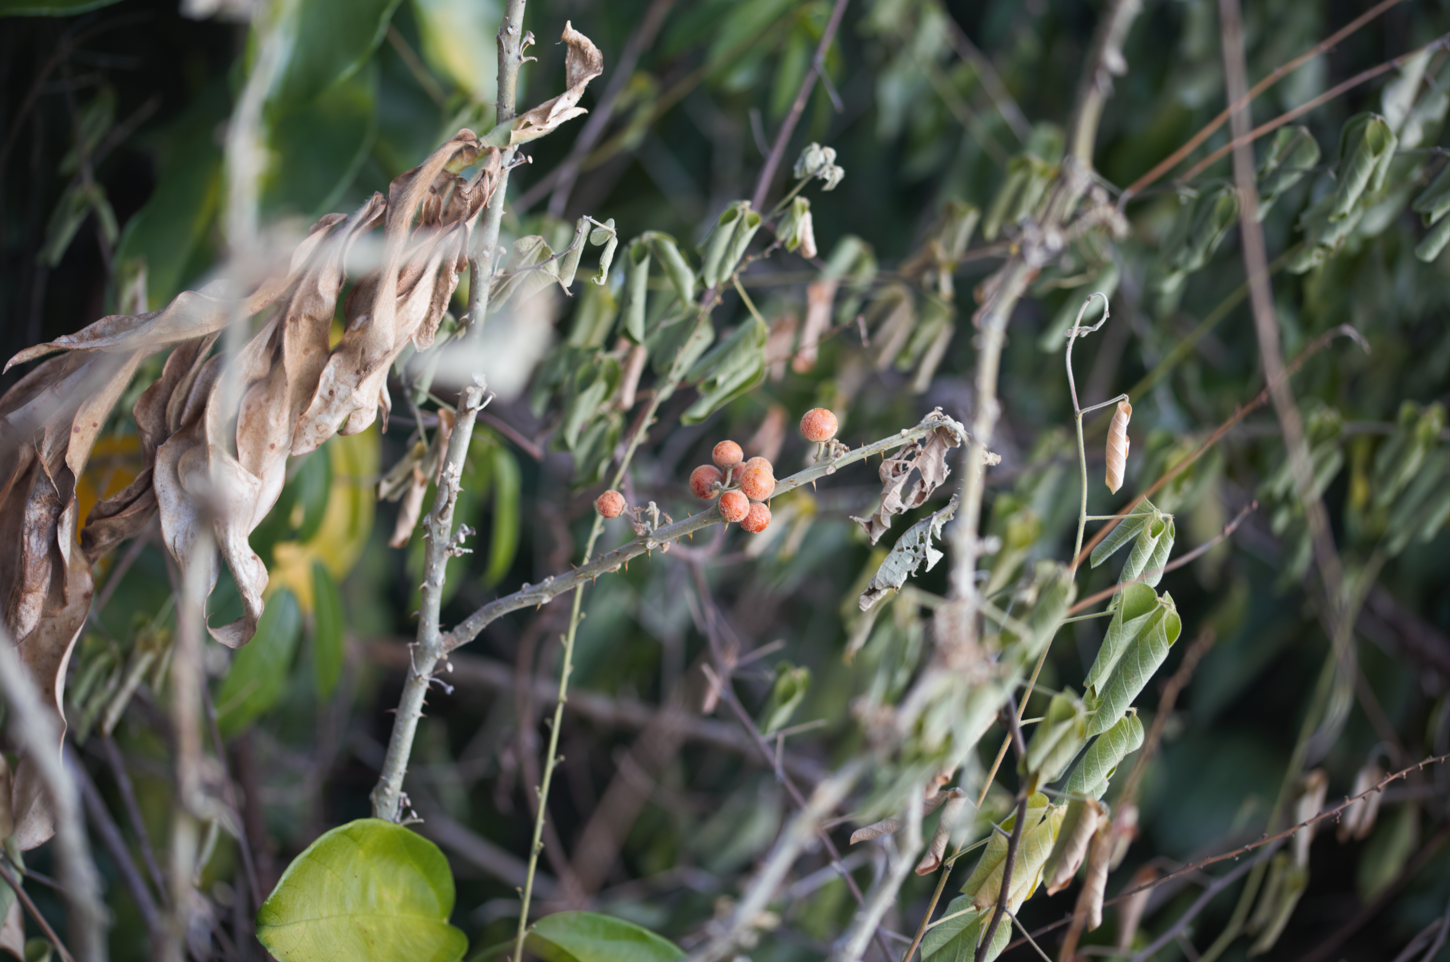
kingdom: Plantae
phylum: Tracheophyta
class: Magnoliopsida
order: Solanales
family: Solanaceae
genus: Solanum
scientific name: Solanum
